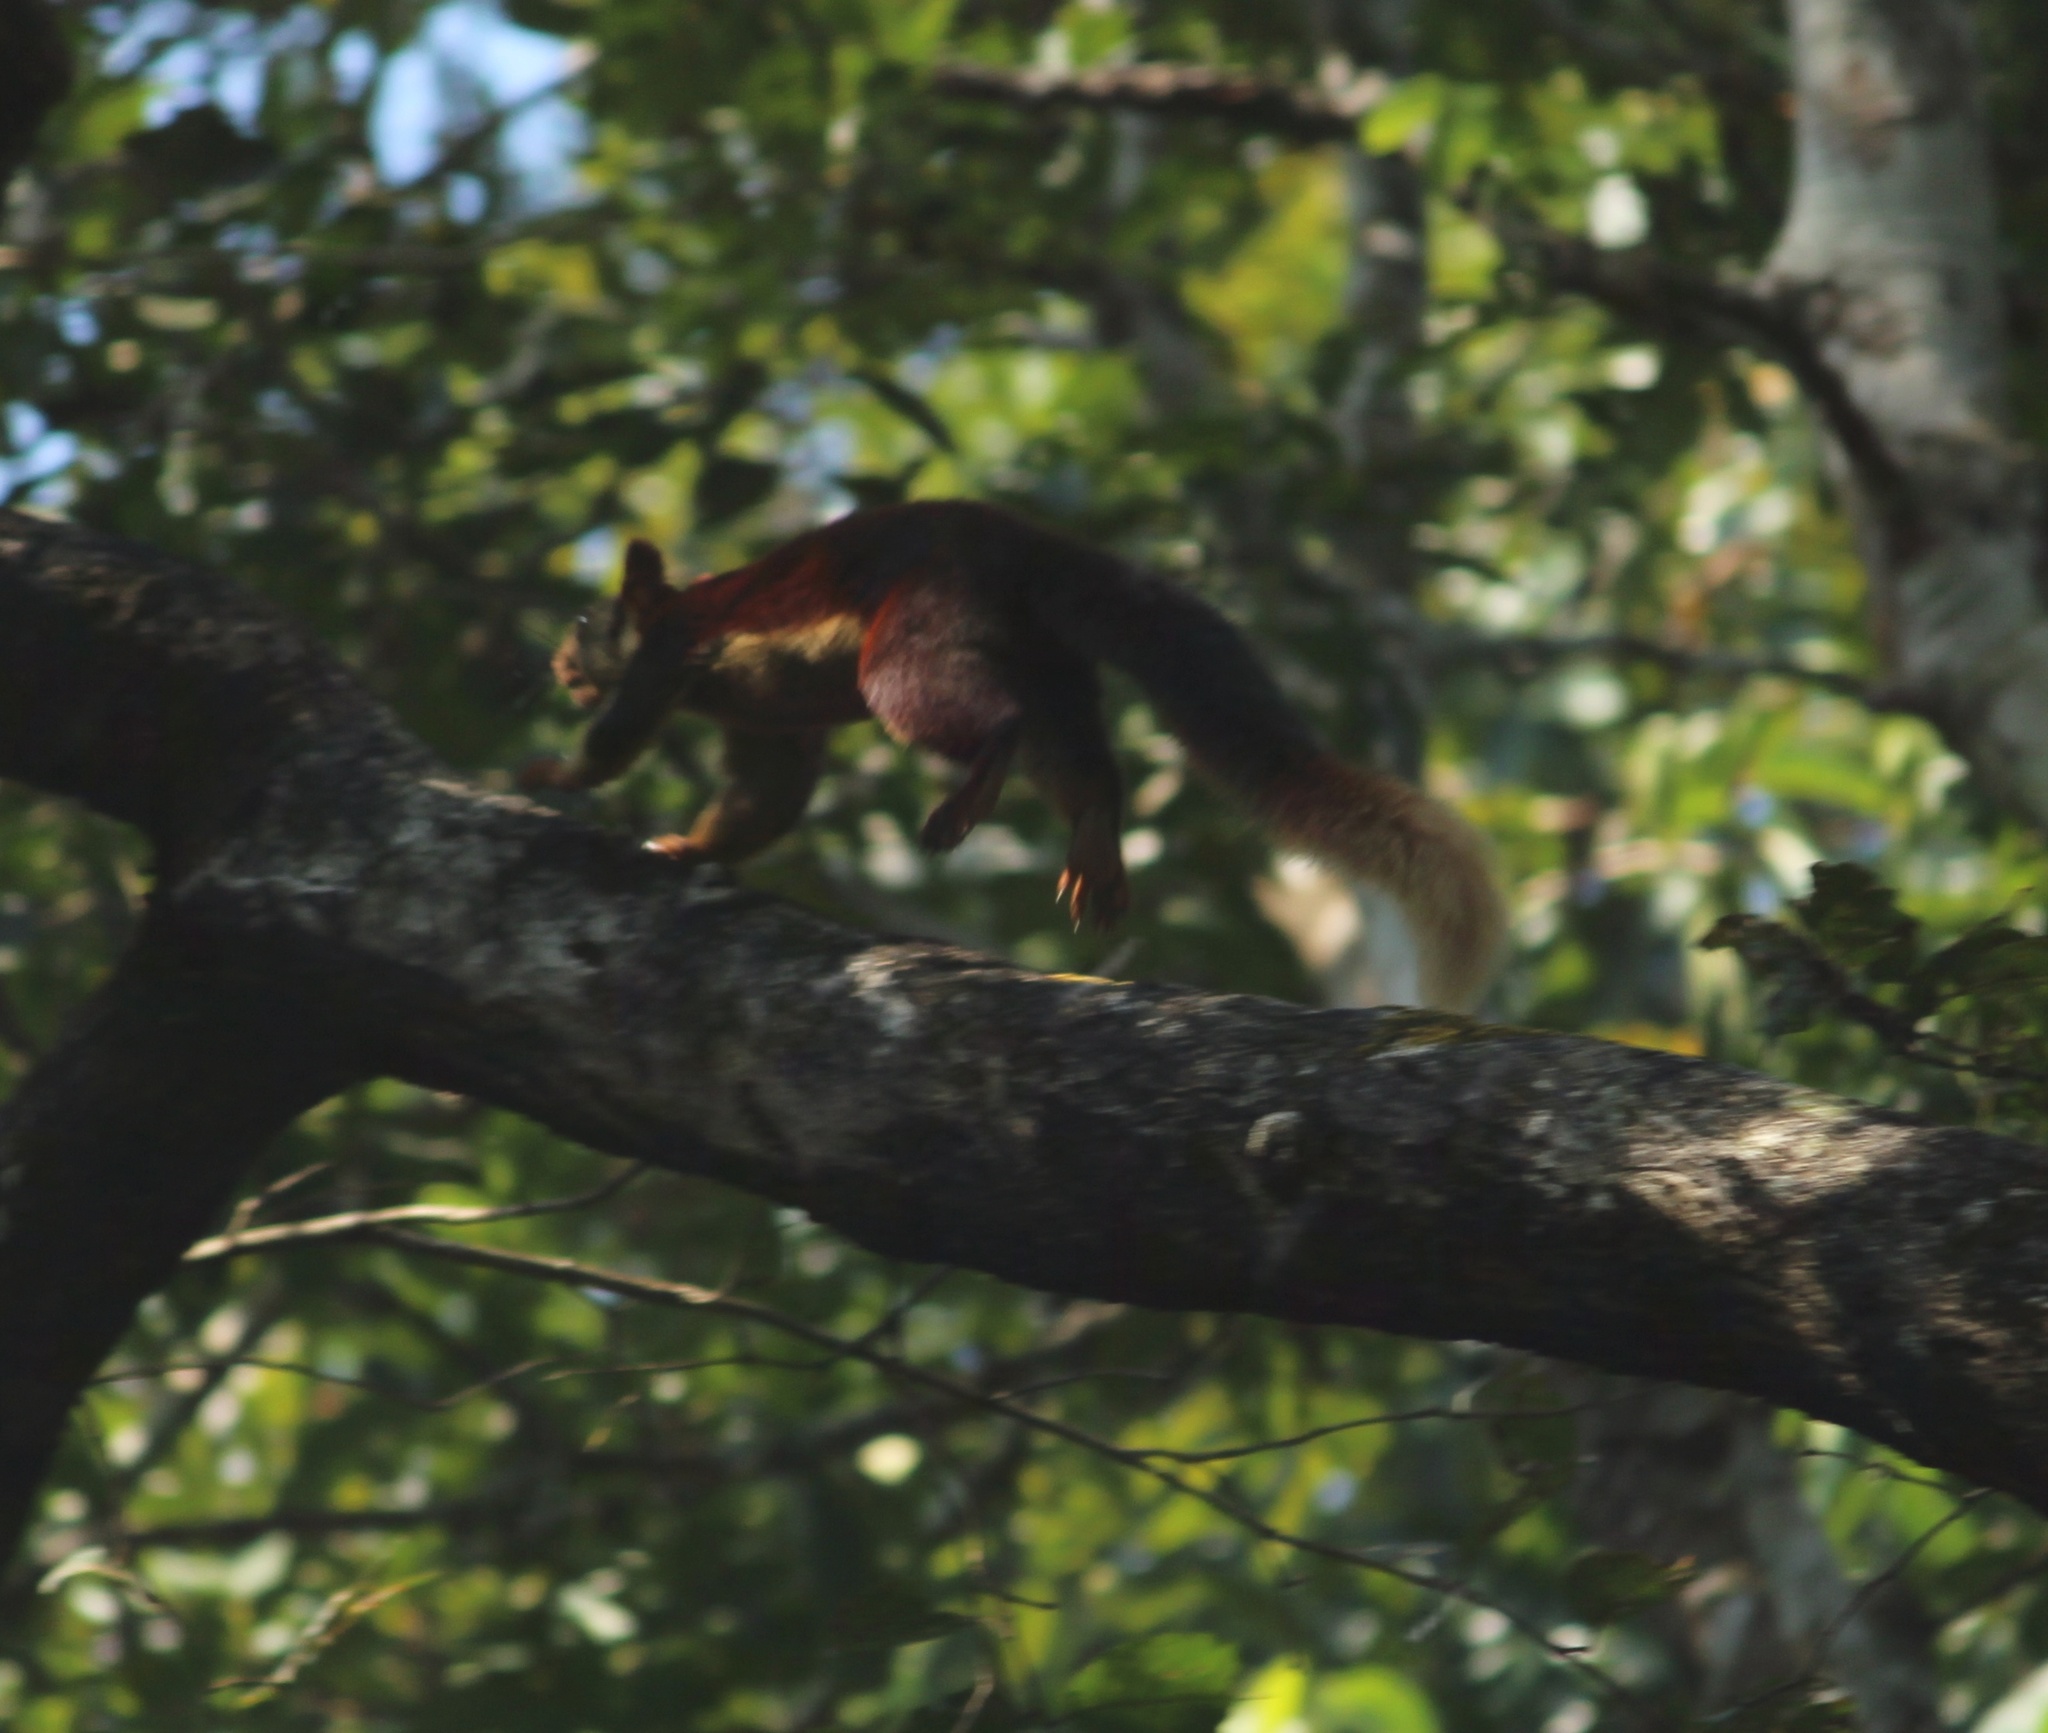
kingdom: Animalia
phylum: Chordata
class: Mammalia
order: Rodentia
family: Sciuridae
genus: Ratufa
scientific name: Ratufa indica
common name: Indian giant squirrel
